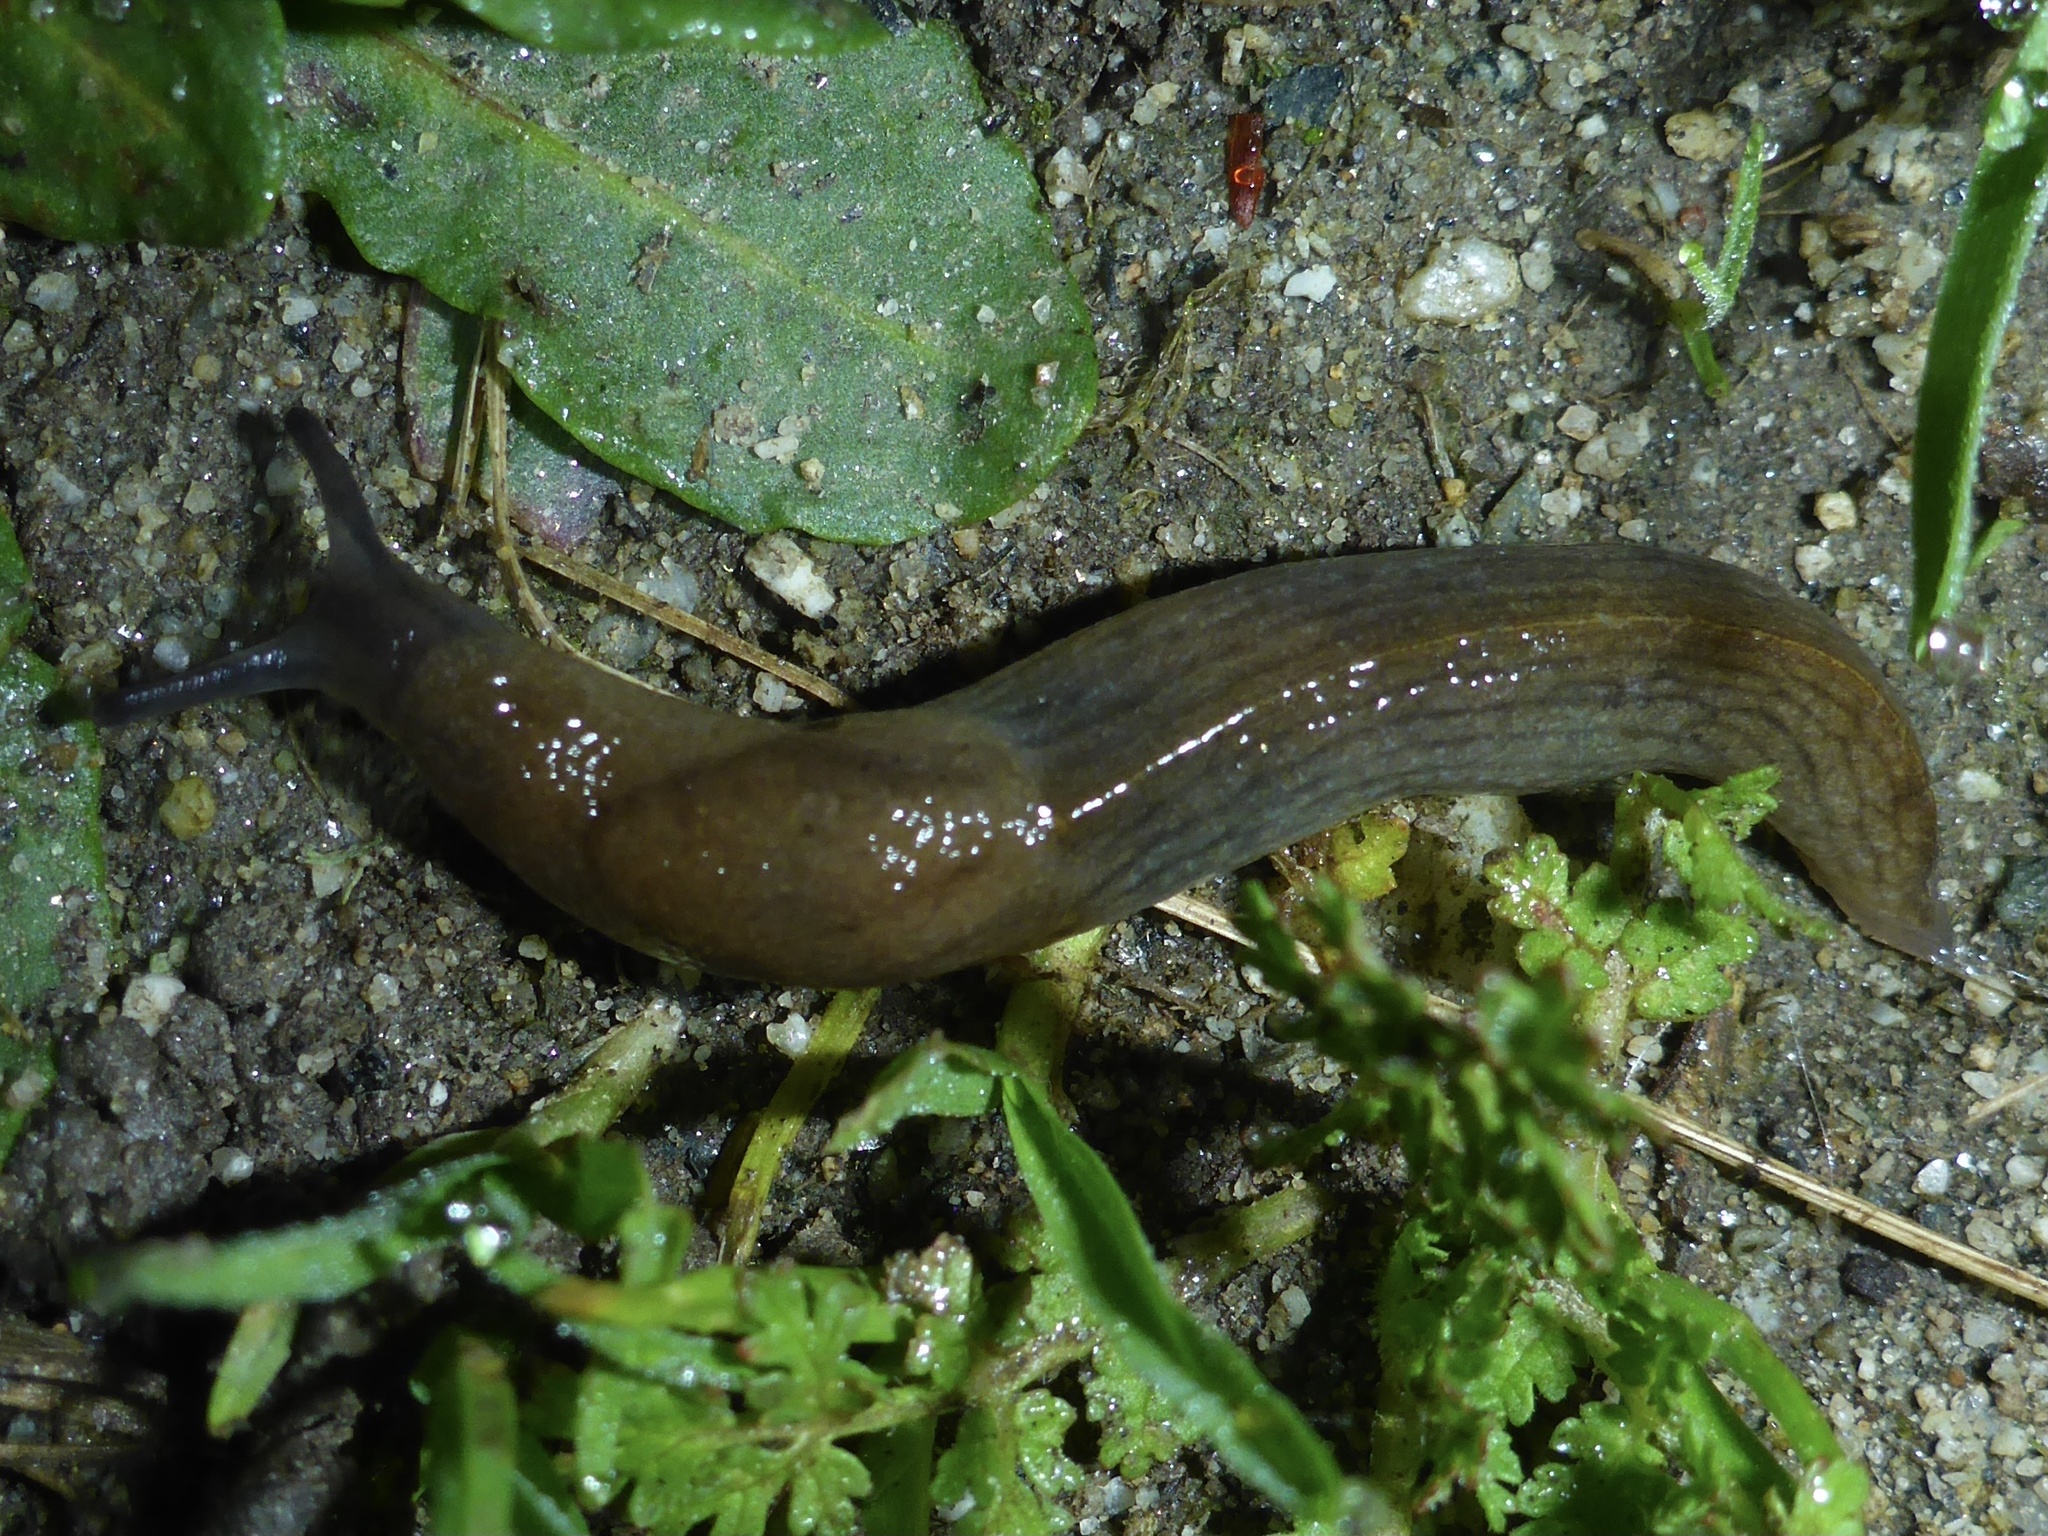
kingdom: Animalia
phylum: Mollusca
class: Gastropoda
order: Stylommatophora
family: Milacidae
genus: Milax
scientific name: Milax gagates
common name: Greenhouse slug
